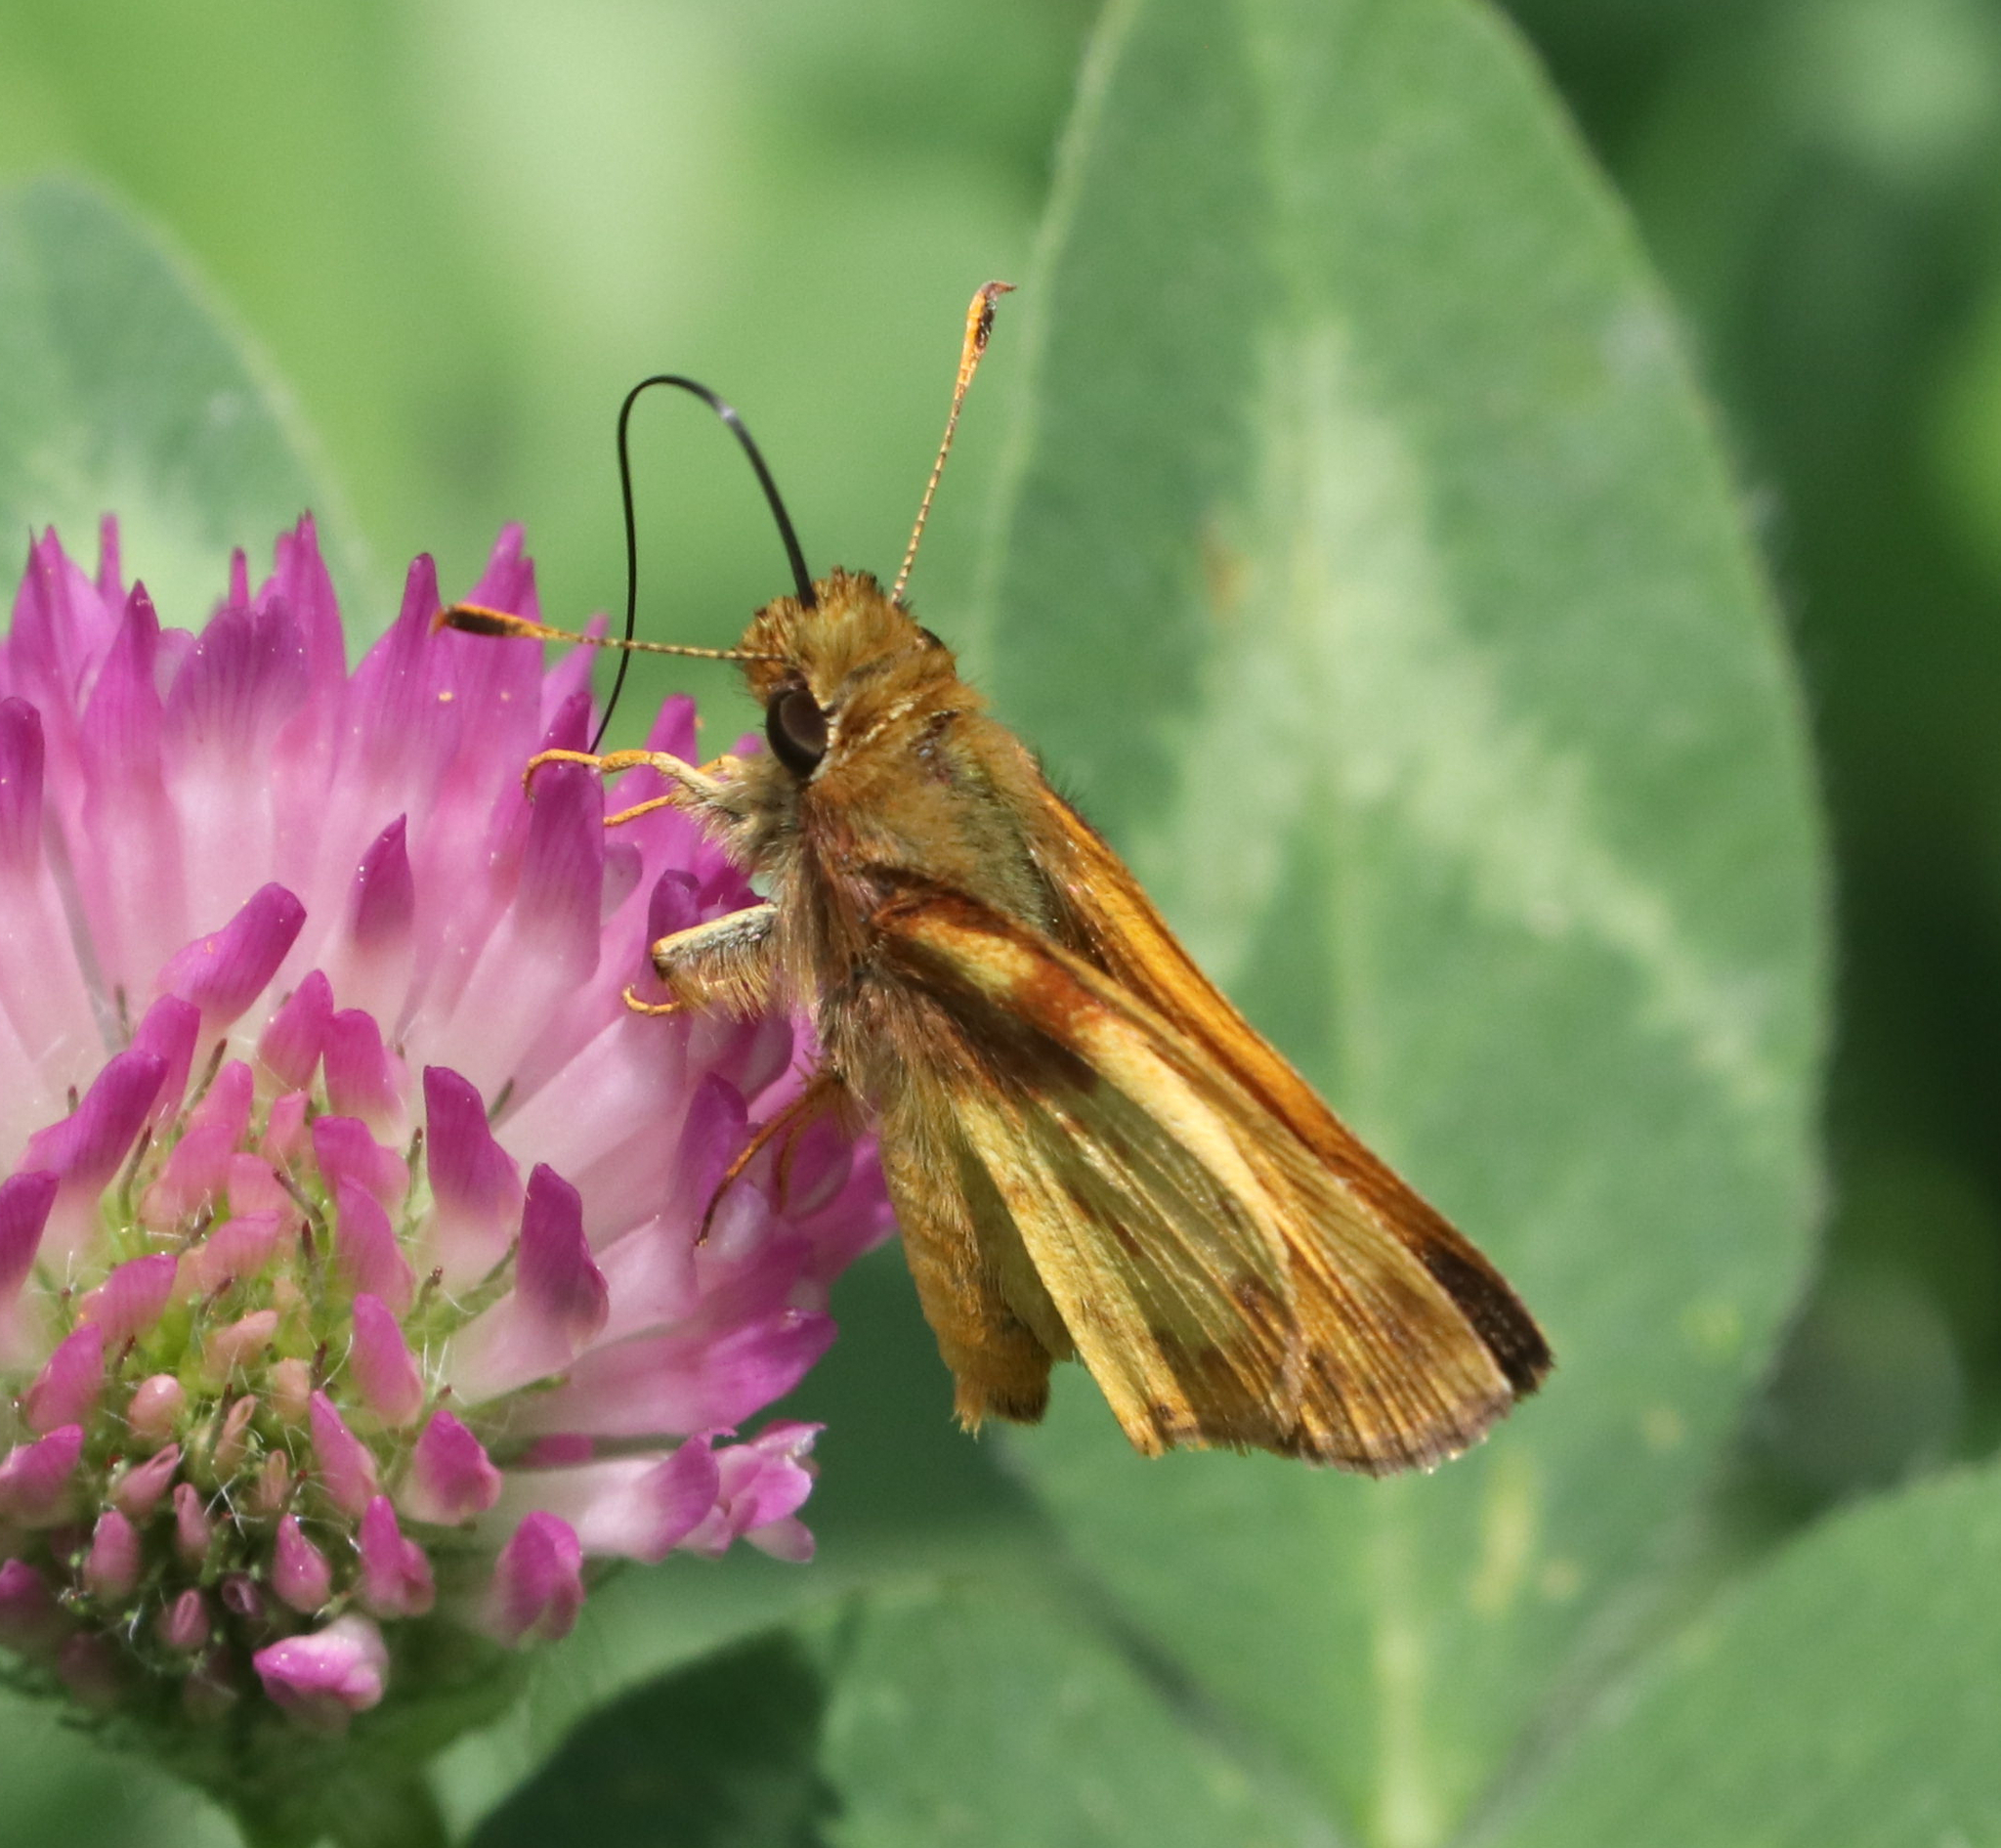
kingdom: Animalia
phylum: Arthropoda
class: Insecta
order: Lepidoptera
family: Hesperiidae
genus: Lon
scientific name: Lon zabulon
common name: Zabulon skipper
